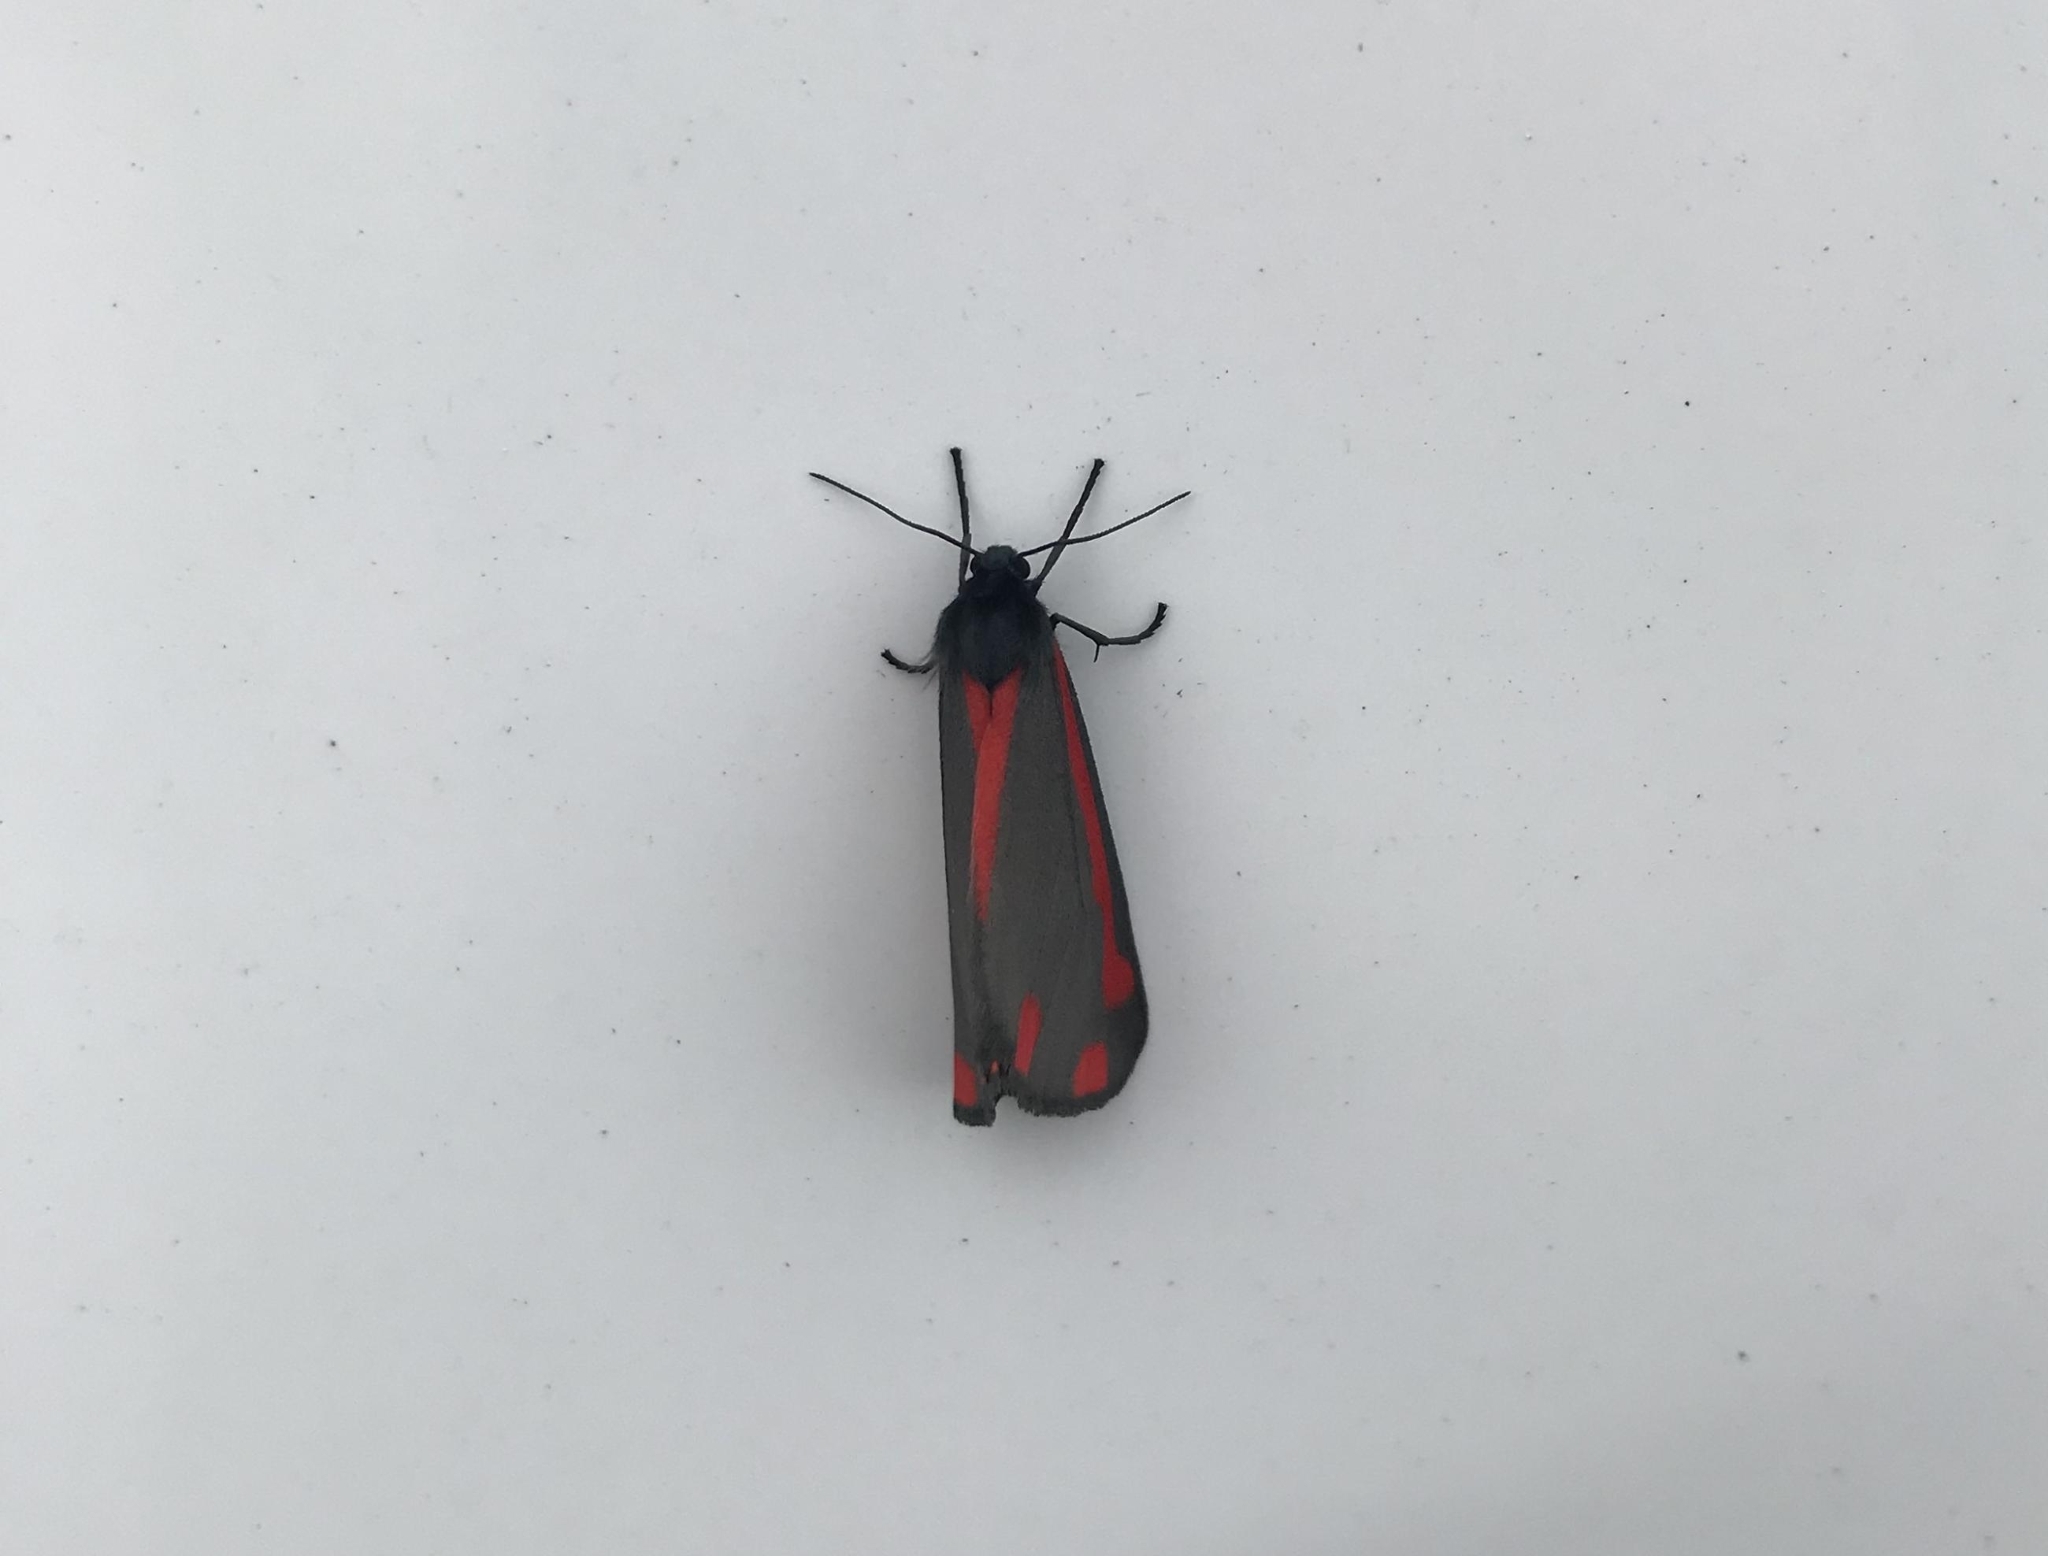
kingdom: Animalia
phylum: Arthropoda
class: Insecta
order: Lepidoptera
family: Erebidae
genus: Tyria
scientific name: Tyria jacobaeae
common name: Cinnabar
